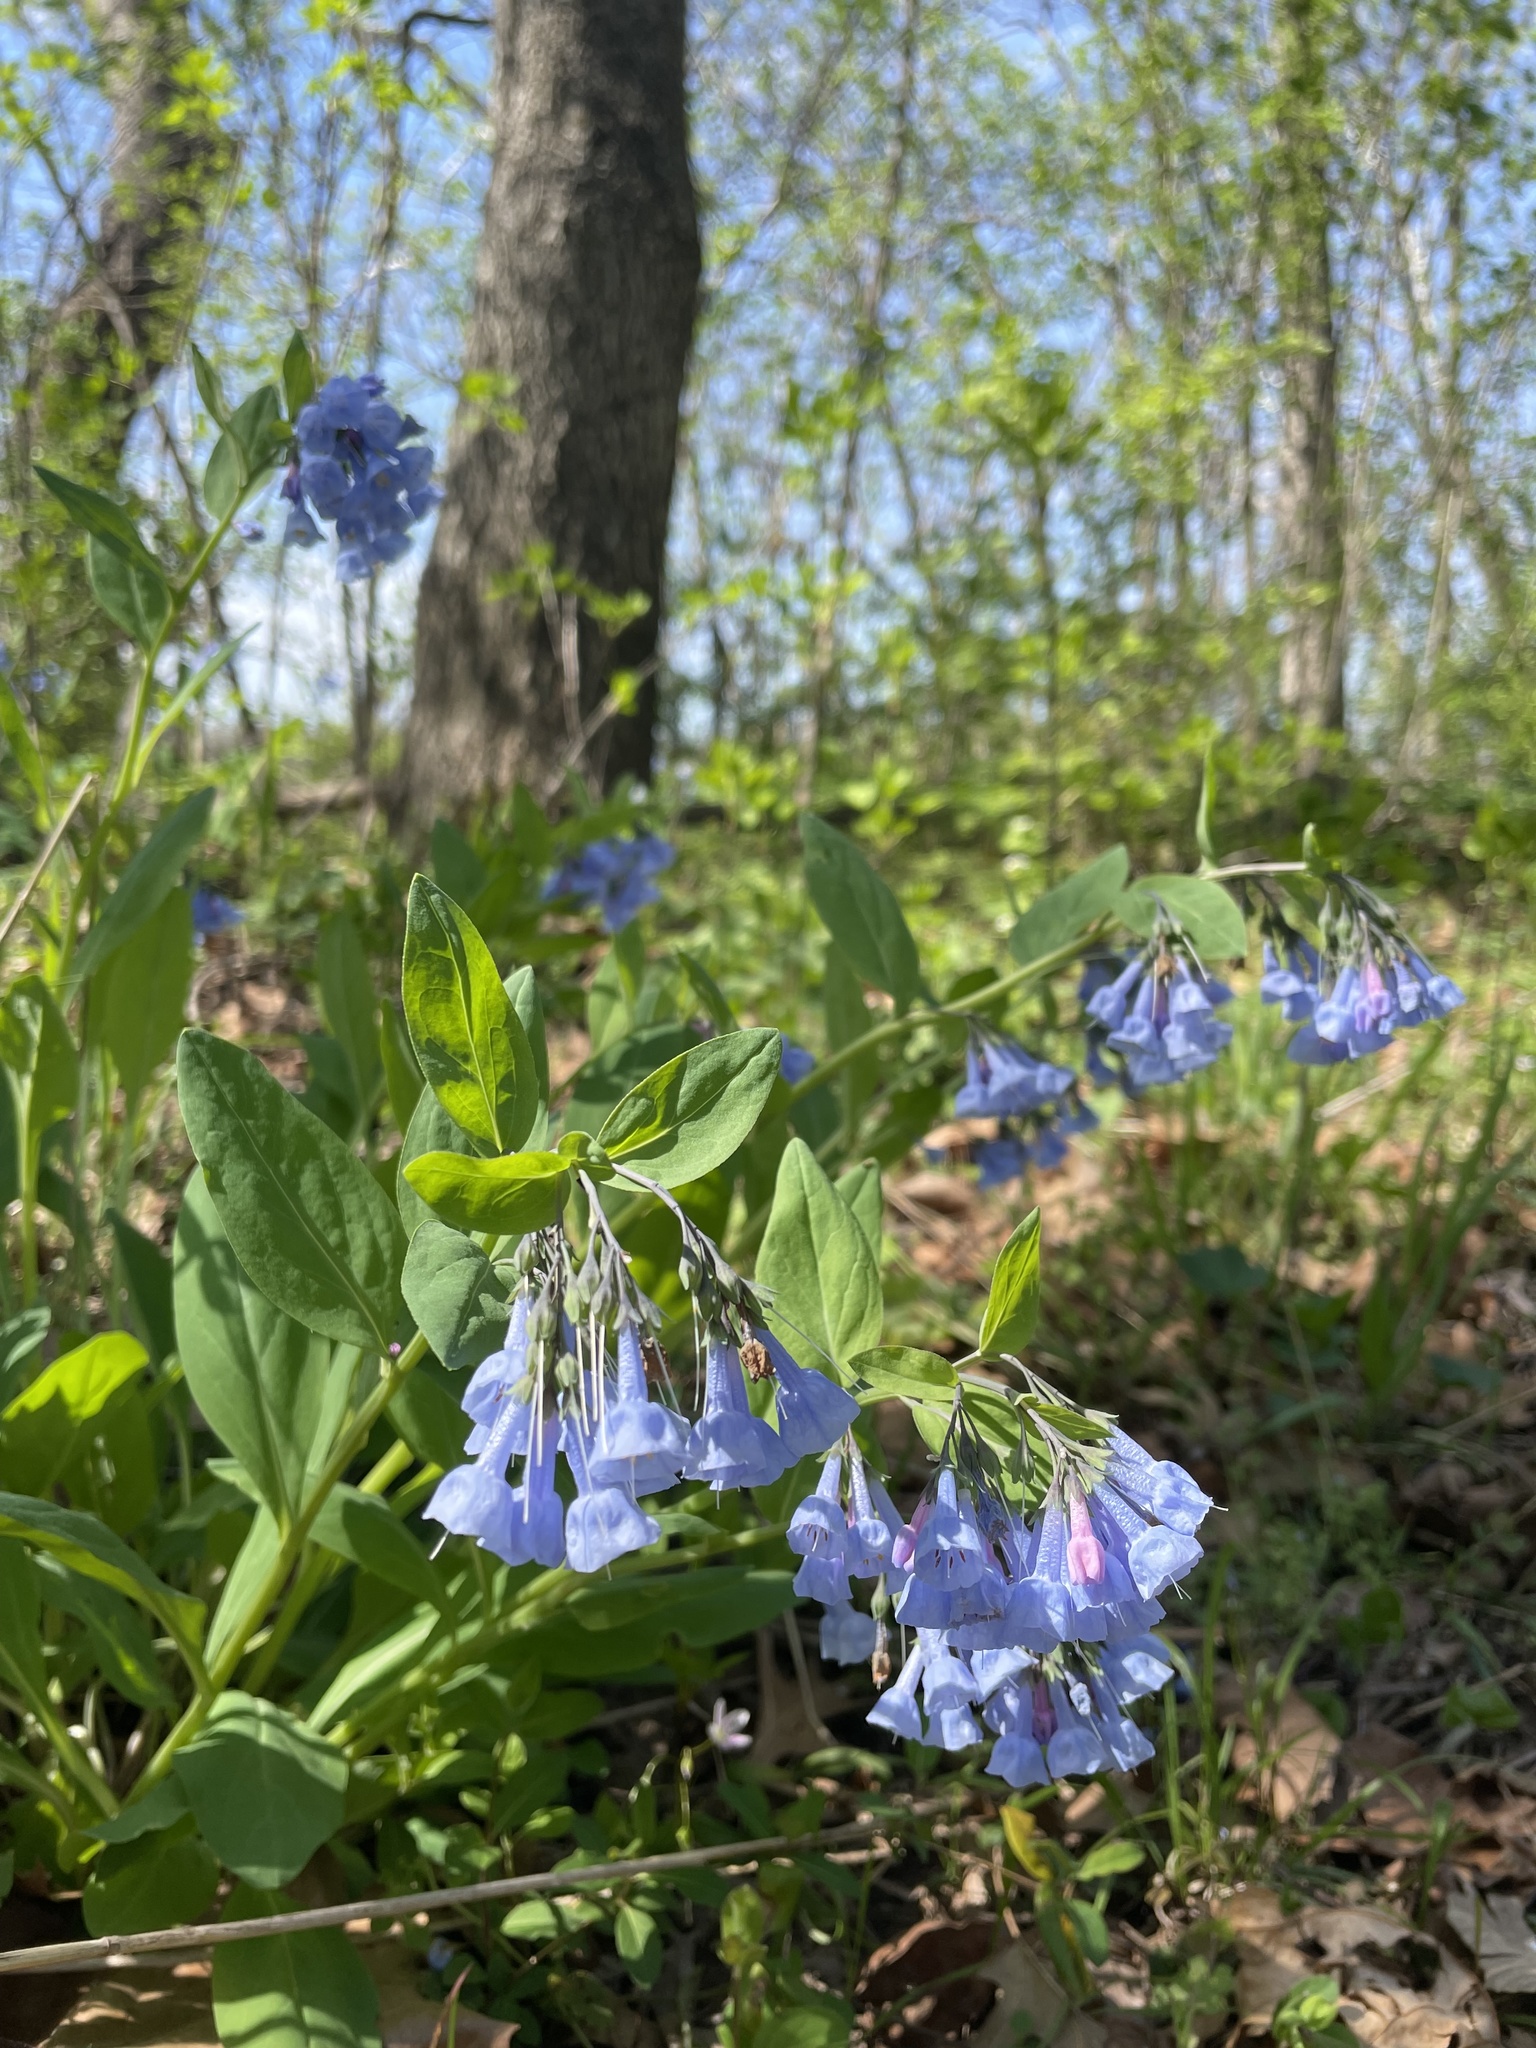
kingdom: Plantae
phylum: Tracheophyta
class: Magnoliopsida
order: Boraginales
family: Boraginaceae
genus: Mertensia
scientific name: Mertensia virginica
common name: Virginia bluebells
